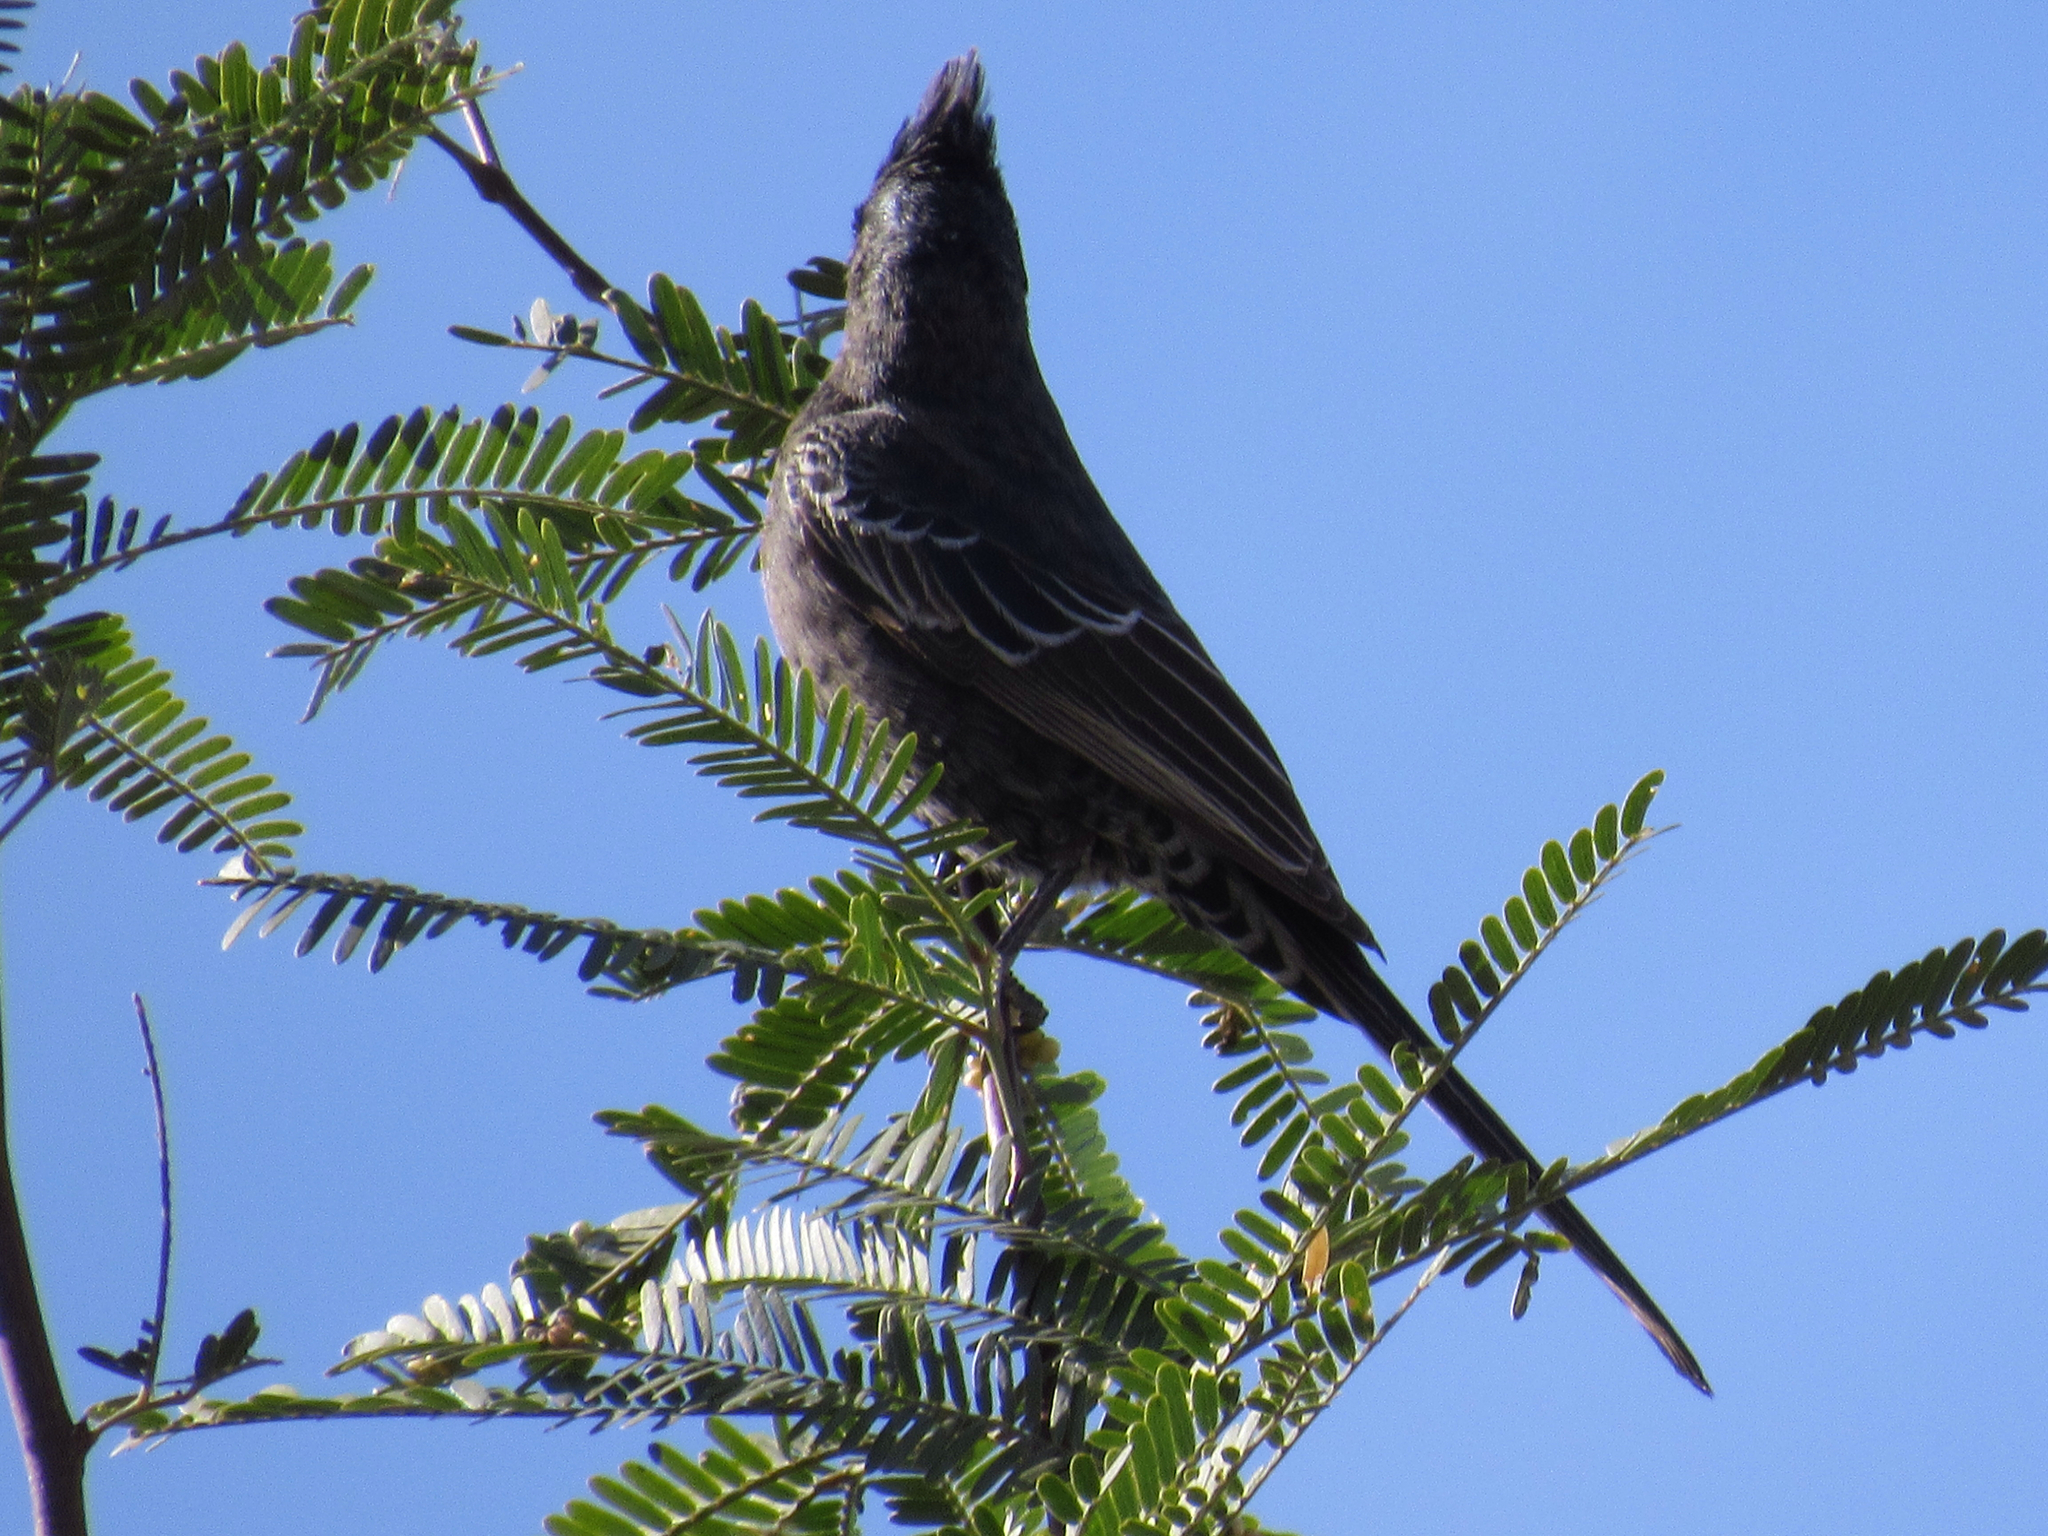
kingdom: Animalia
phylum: Chordata
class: Aves
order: Passeriformes
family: Ptilogonatidae
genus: Phainopepla
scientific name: Phainopepla nitens
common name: Phainopepla
